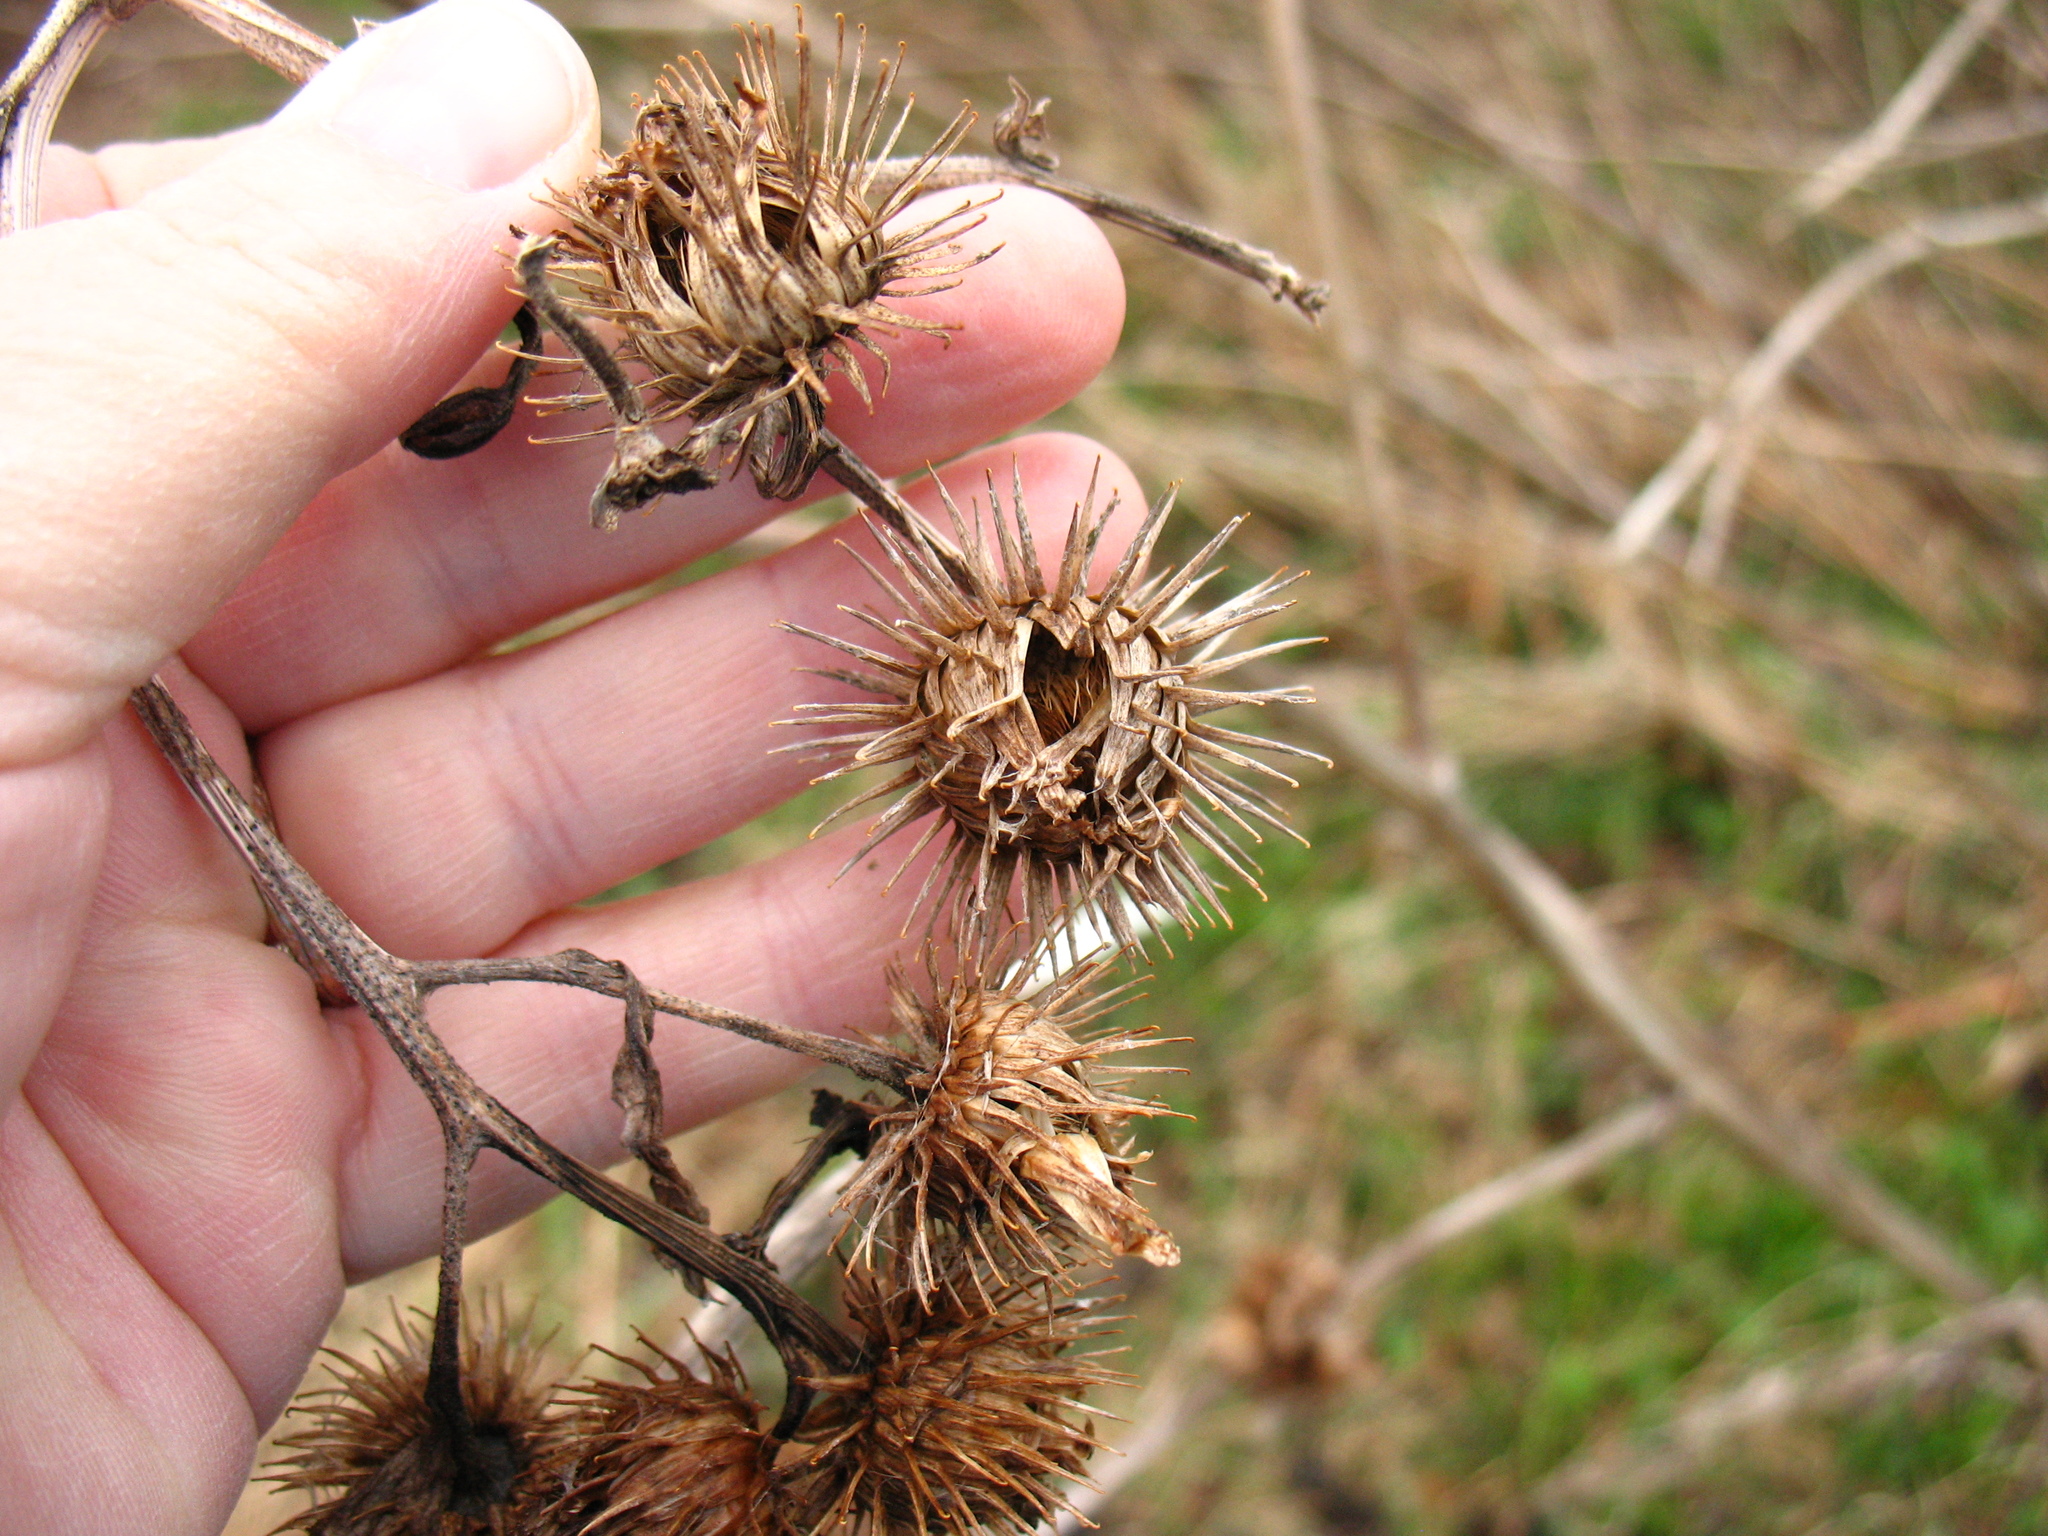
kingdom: Plantae
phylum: Tracheophyta
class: Magnoliopsida
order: Asterales
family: Asteraceae
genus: Arctium
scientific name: Arctium lappa
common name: Greater burdock
